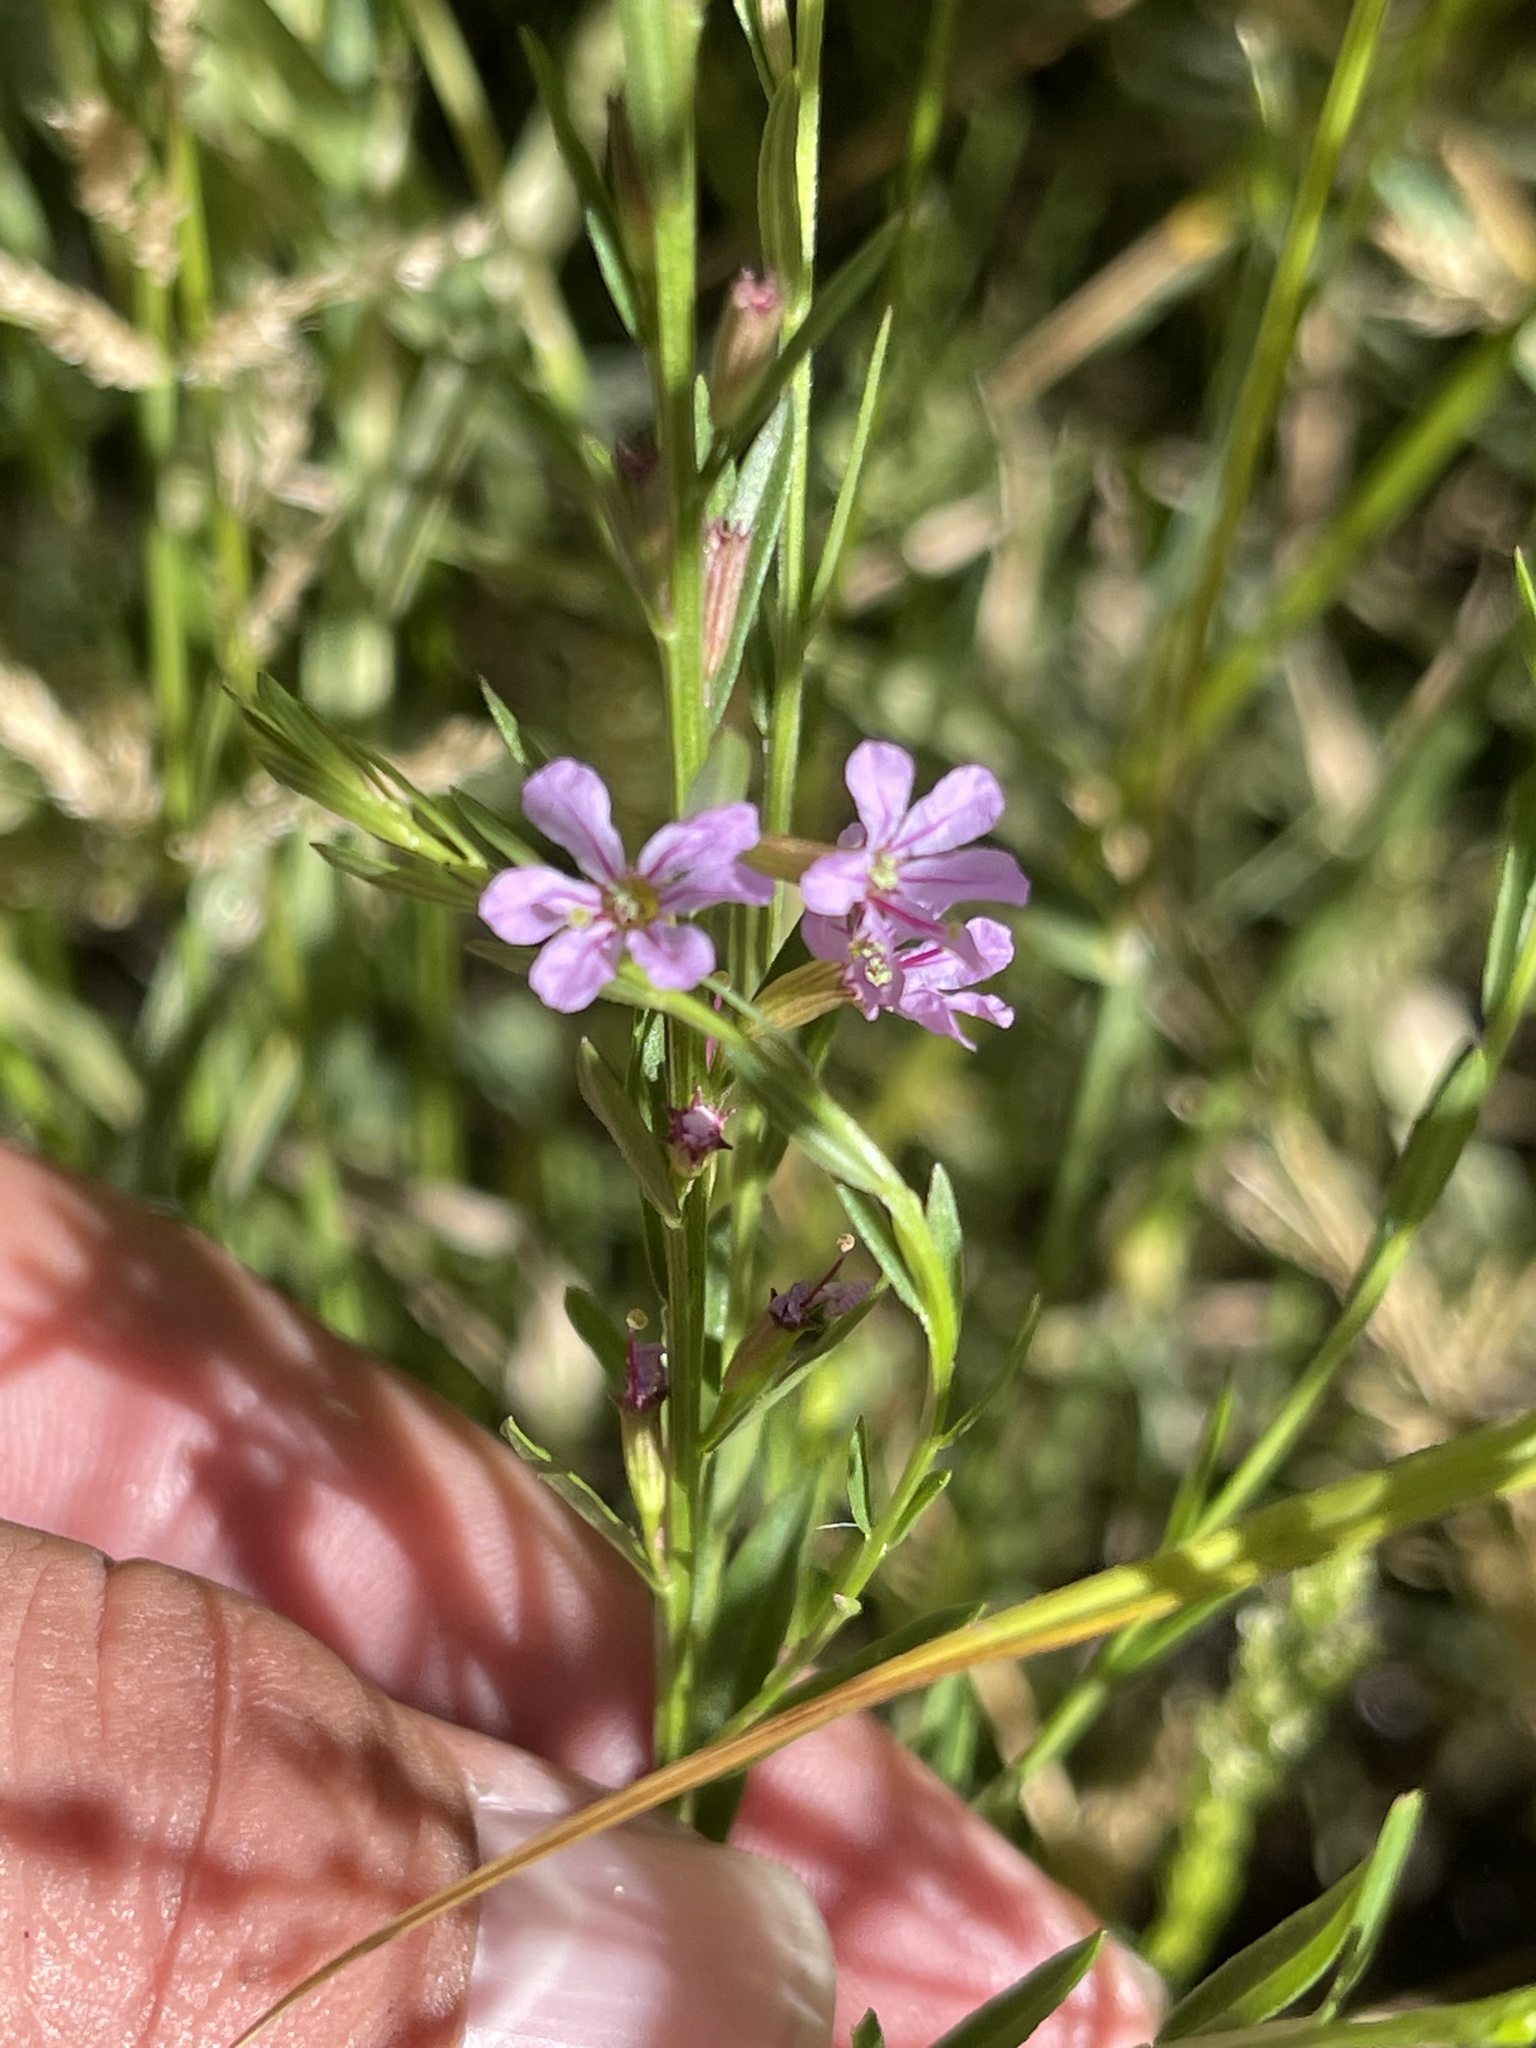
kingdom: Plantae
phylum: Tracheophyta
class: Magnoliopsida
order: Myrtales
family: Lythraceae
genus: Lythrum
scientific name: Lythrum californicum
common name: California loosestrife
